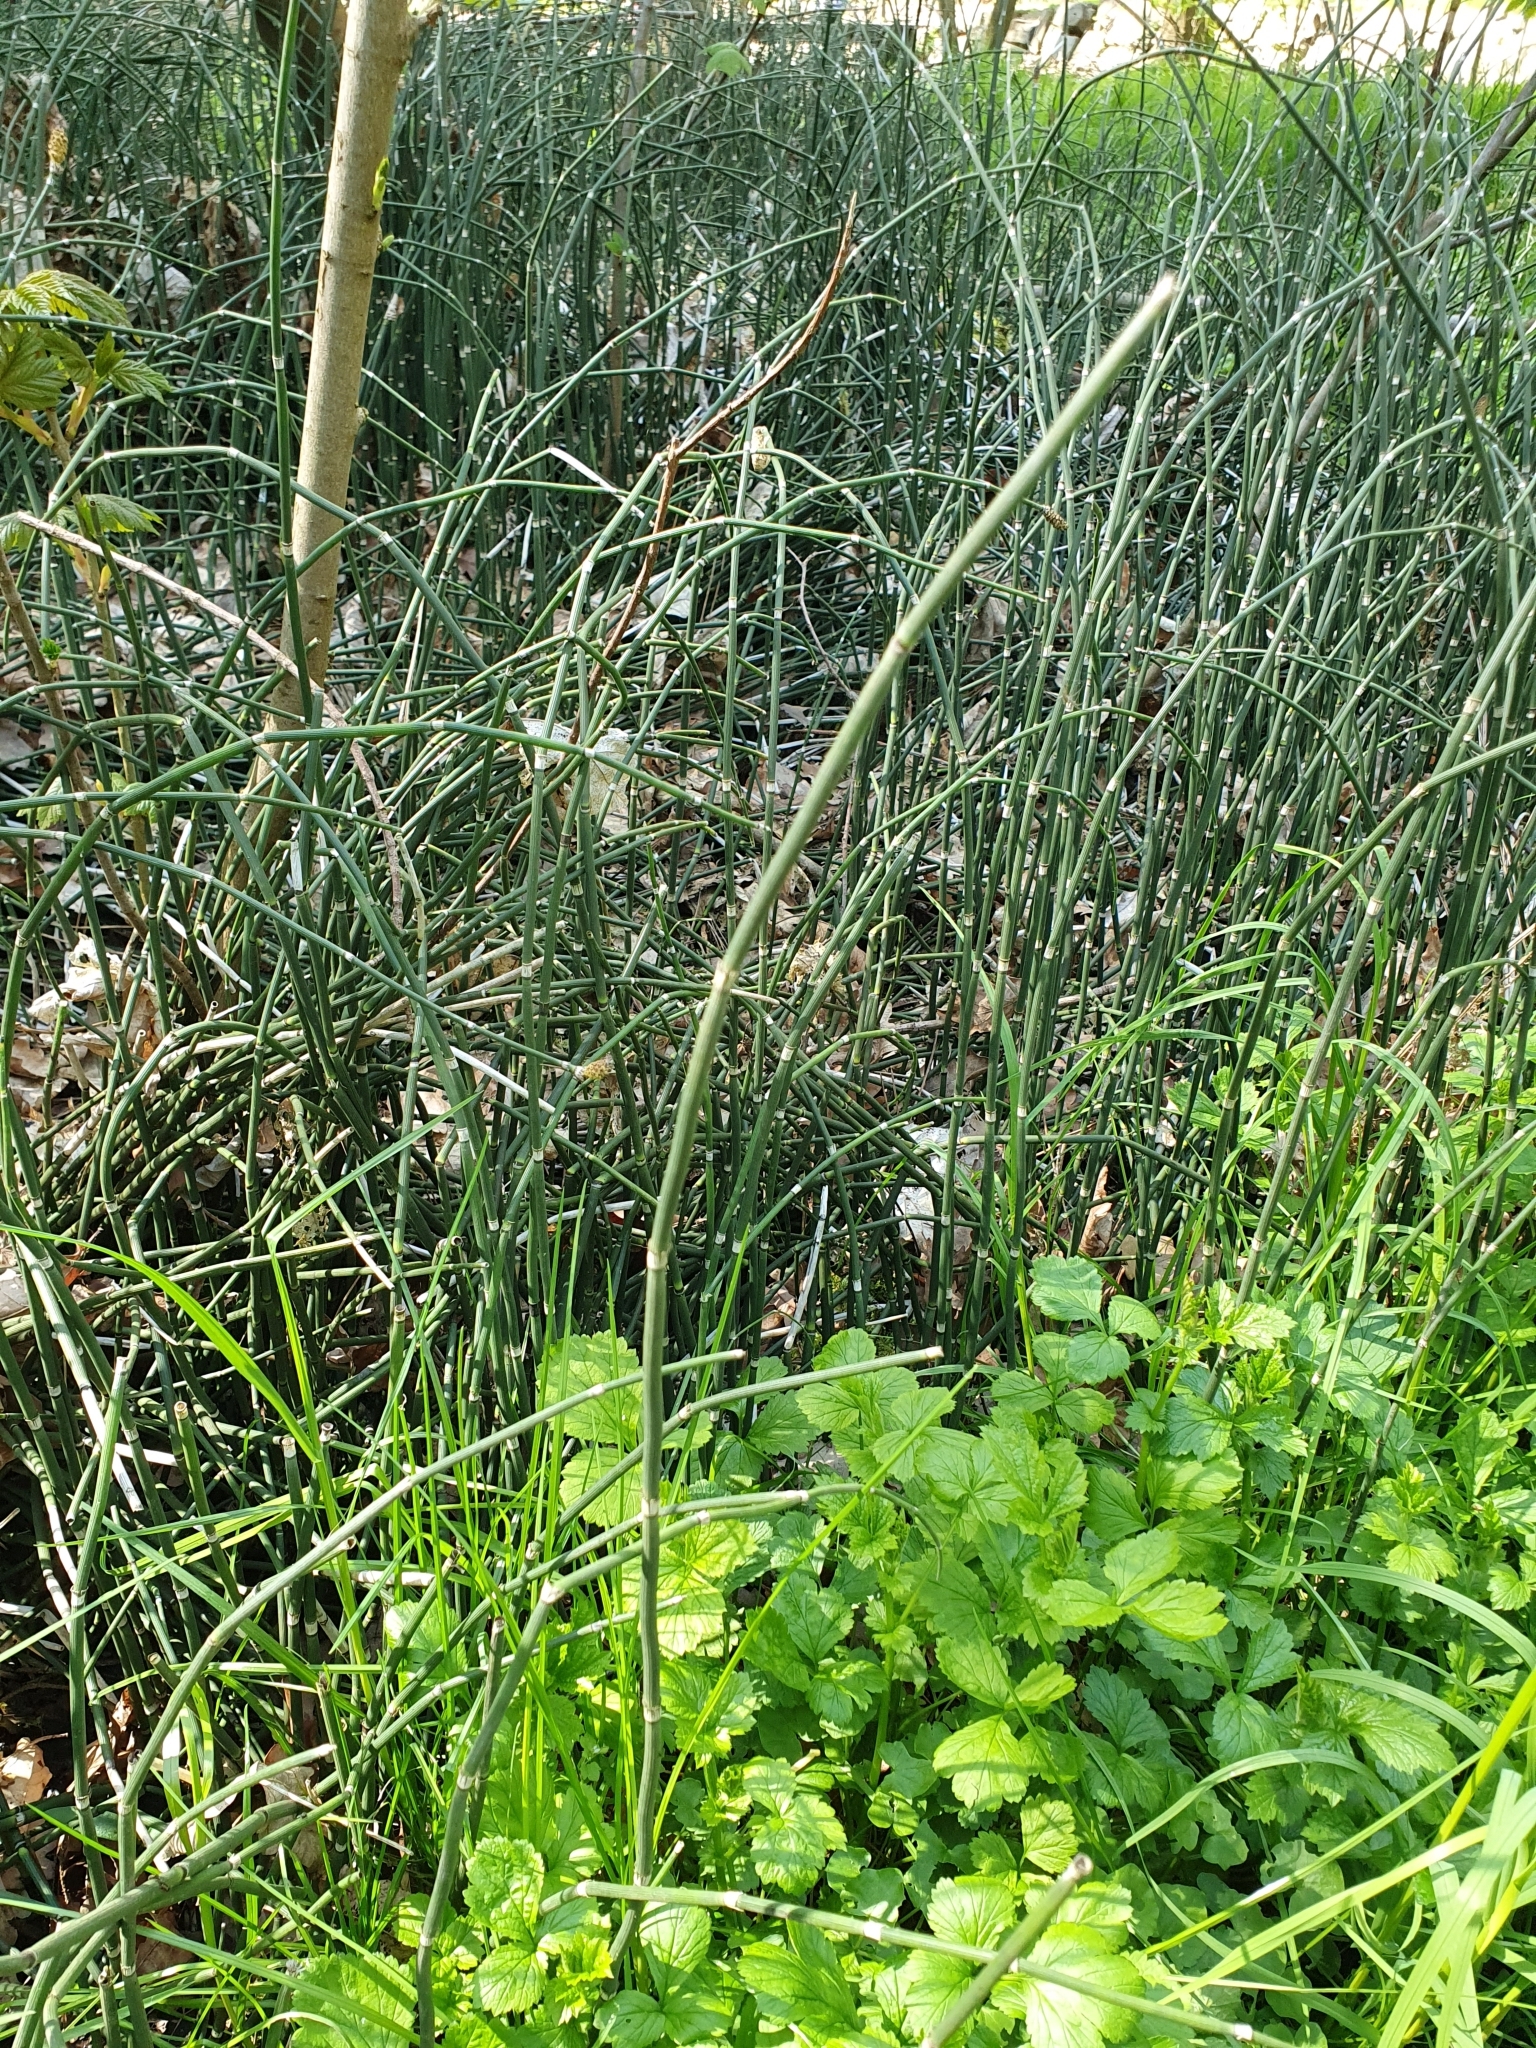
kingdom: Plantae
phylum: Tracheophyta
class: Polypodiopsida
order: Equisetales
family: Equisetaceae
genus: Equisetum
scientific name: Equisetum hyemale
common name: Rough horsetail
